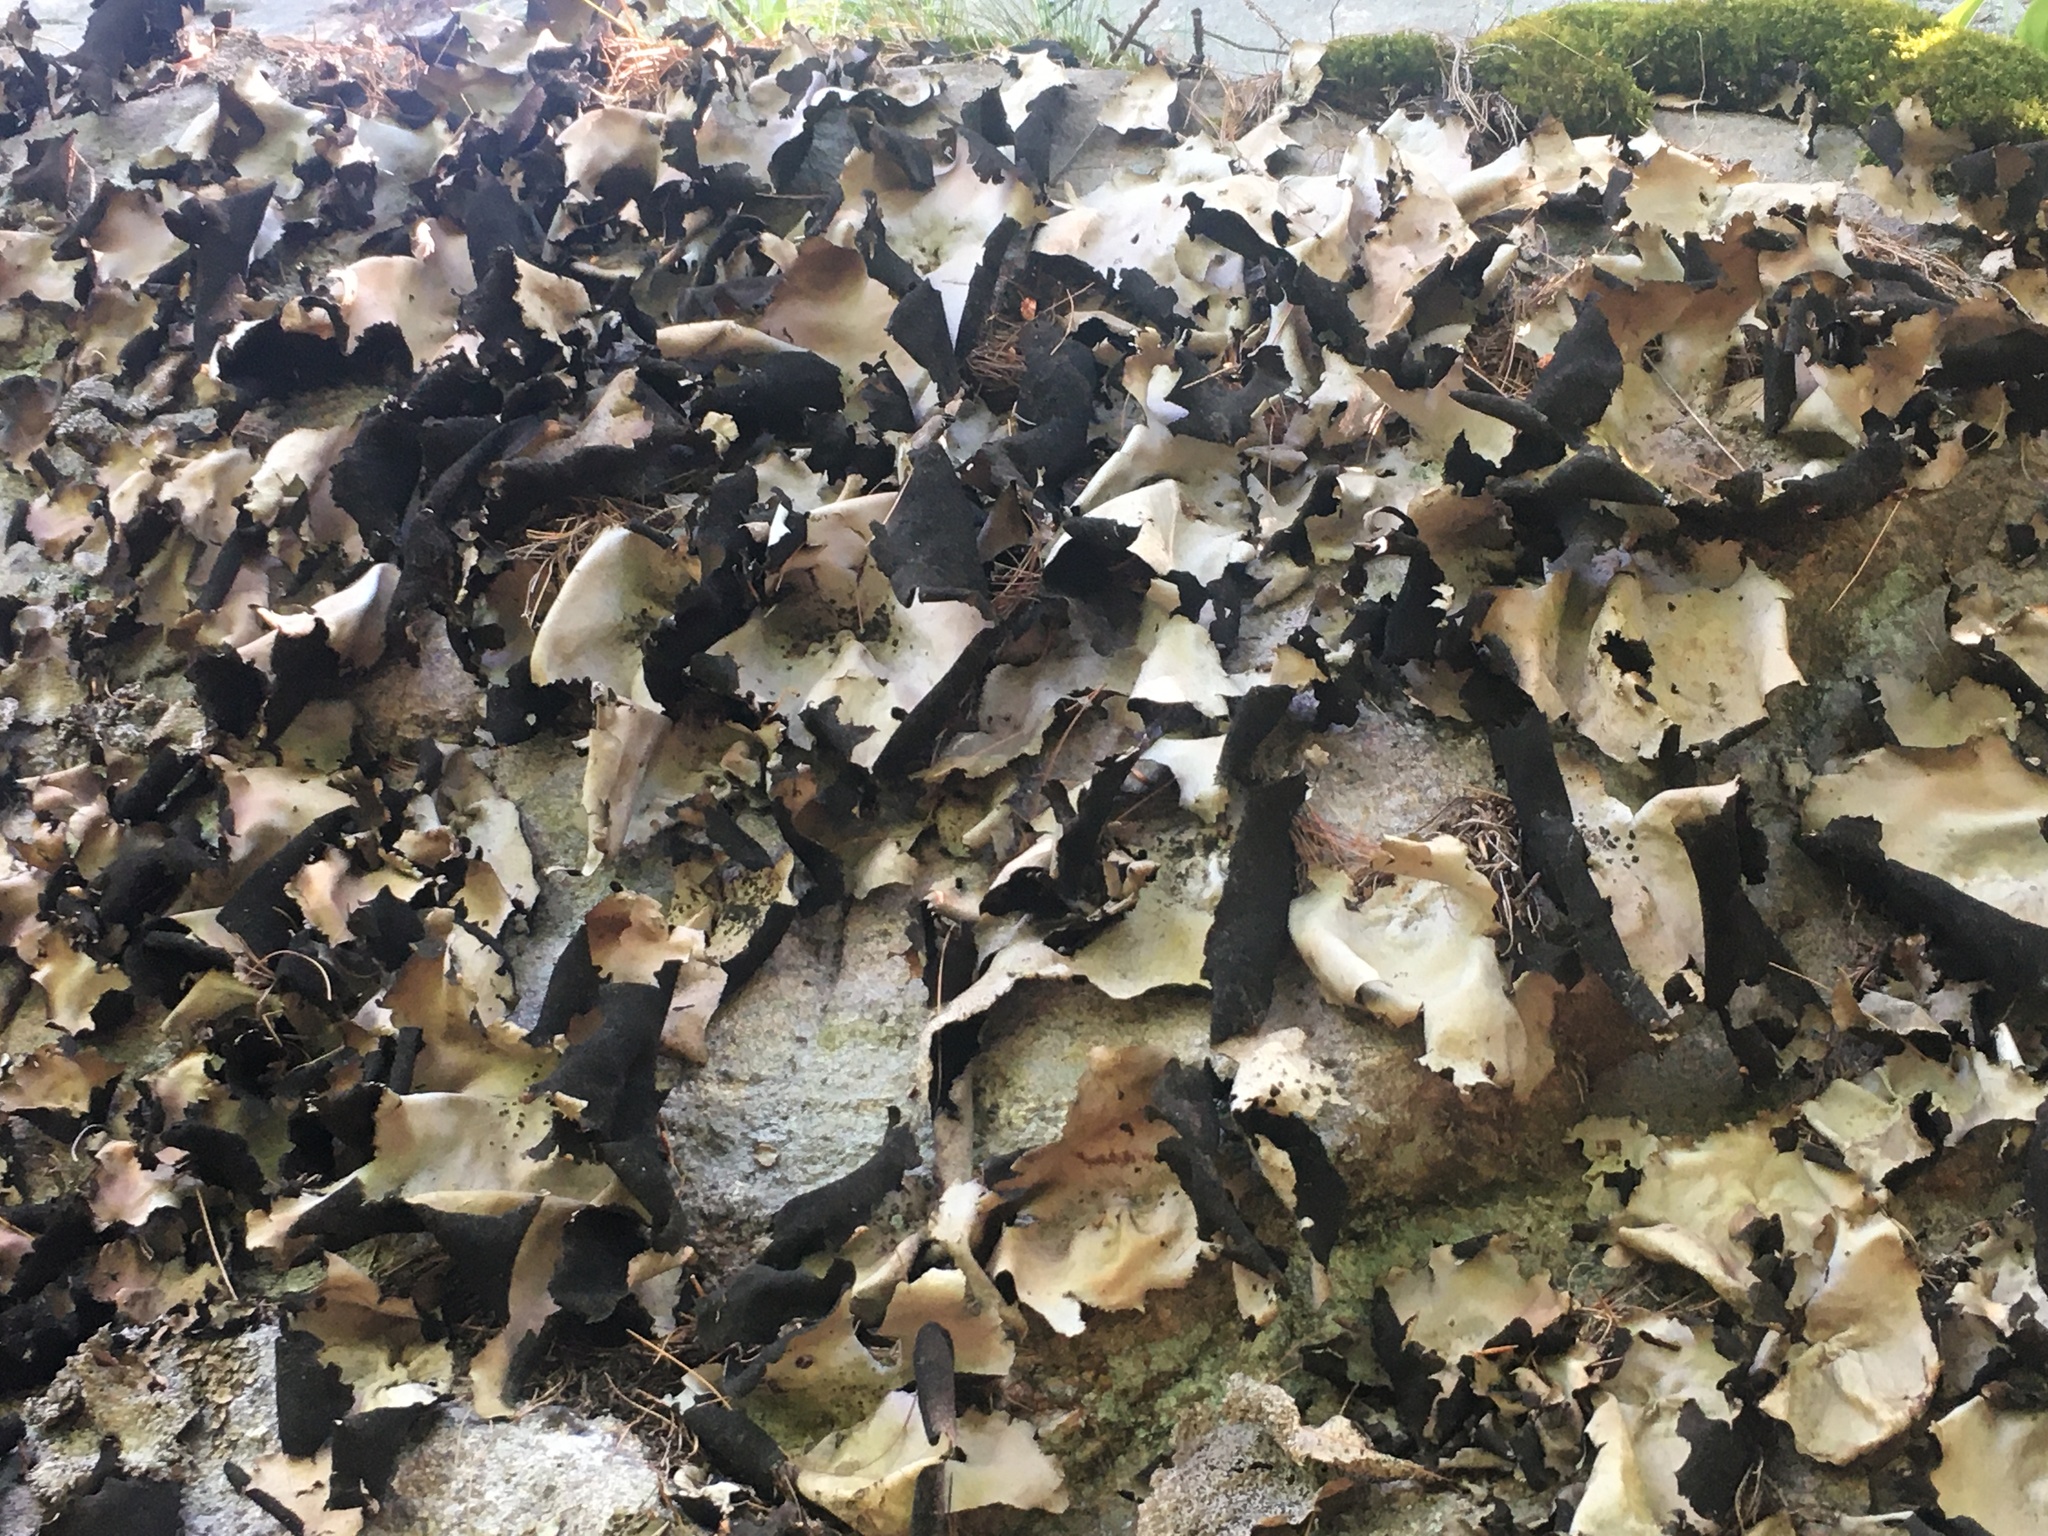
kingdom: Fungi
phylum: Ascomycota
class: Lecanoromycetes
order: Umbilicariales
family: Umbilicariaceae
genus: Umbilicaria
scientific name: Umbilicaria mammulata
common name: Smooth rock tripe
